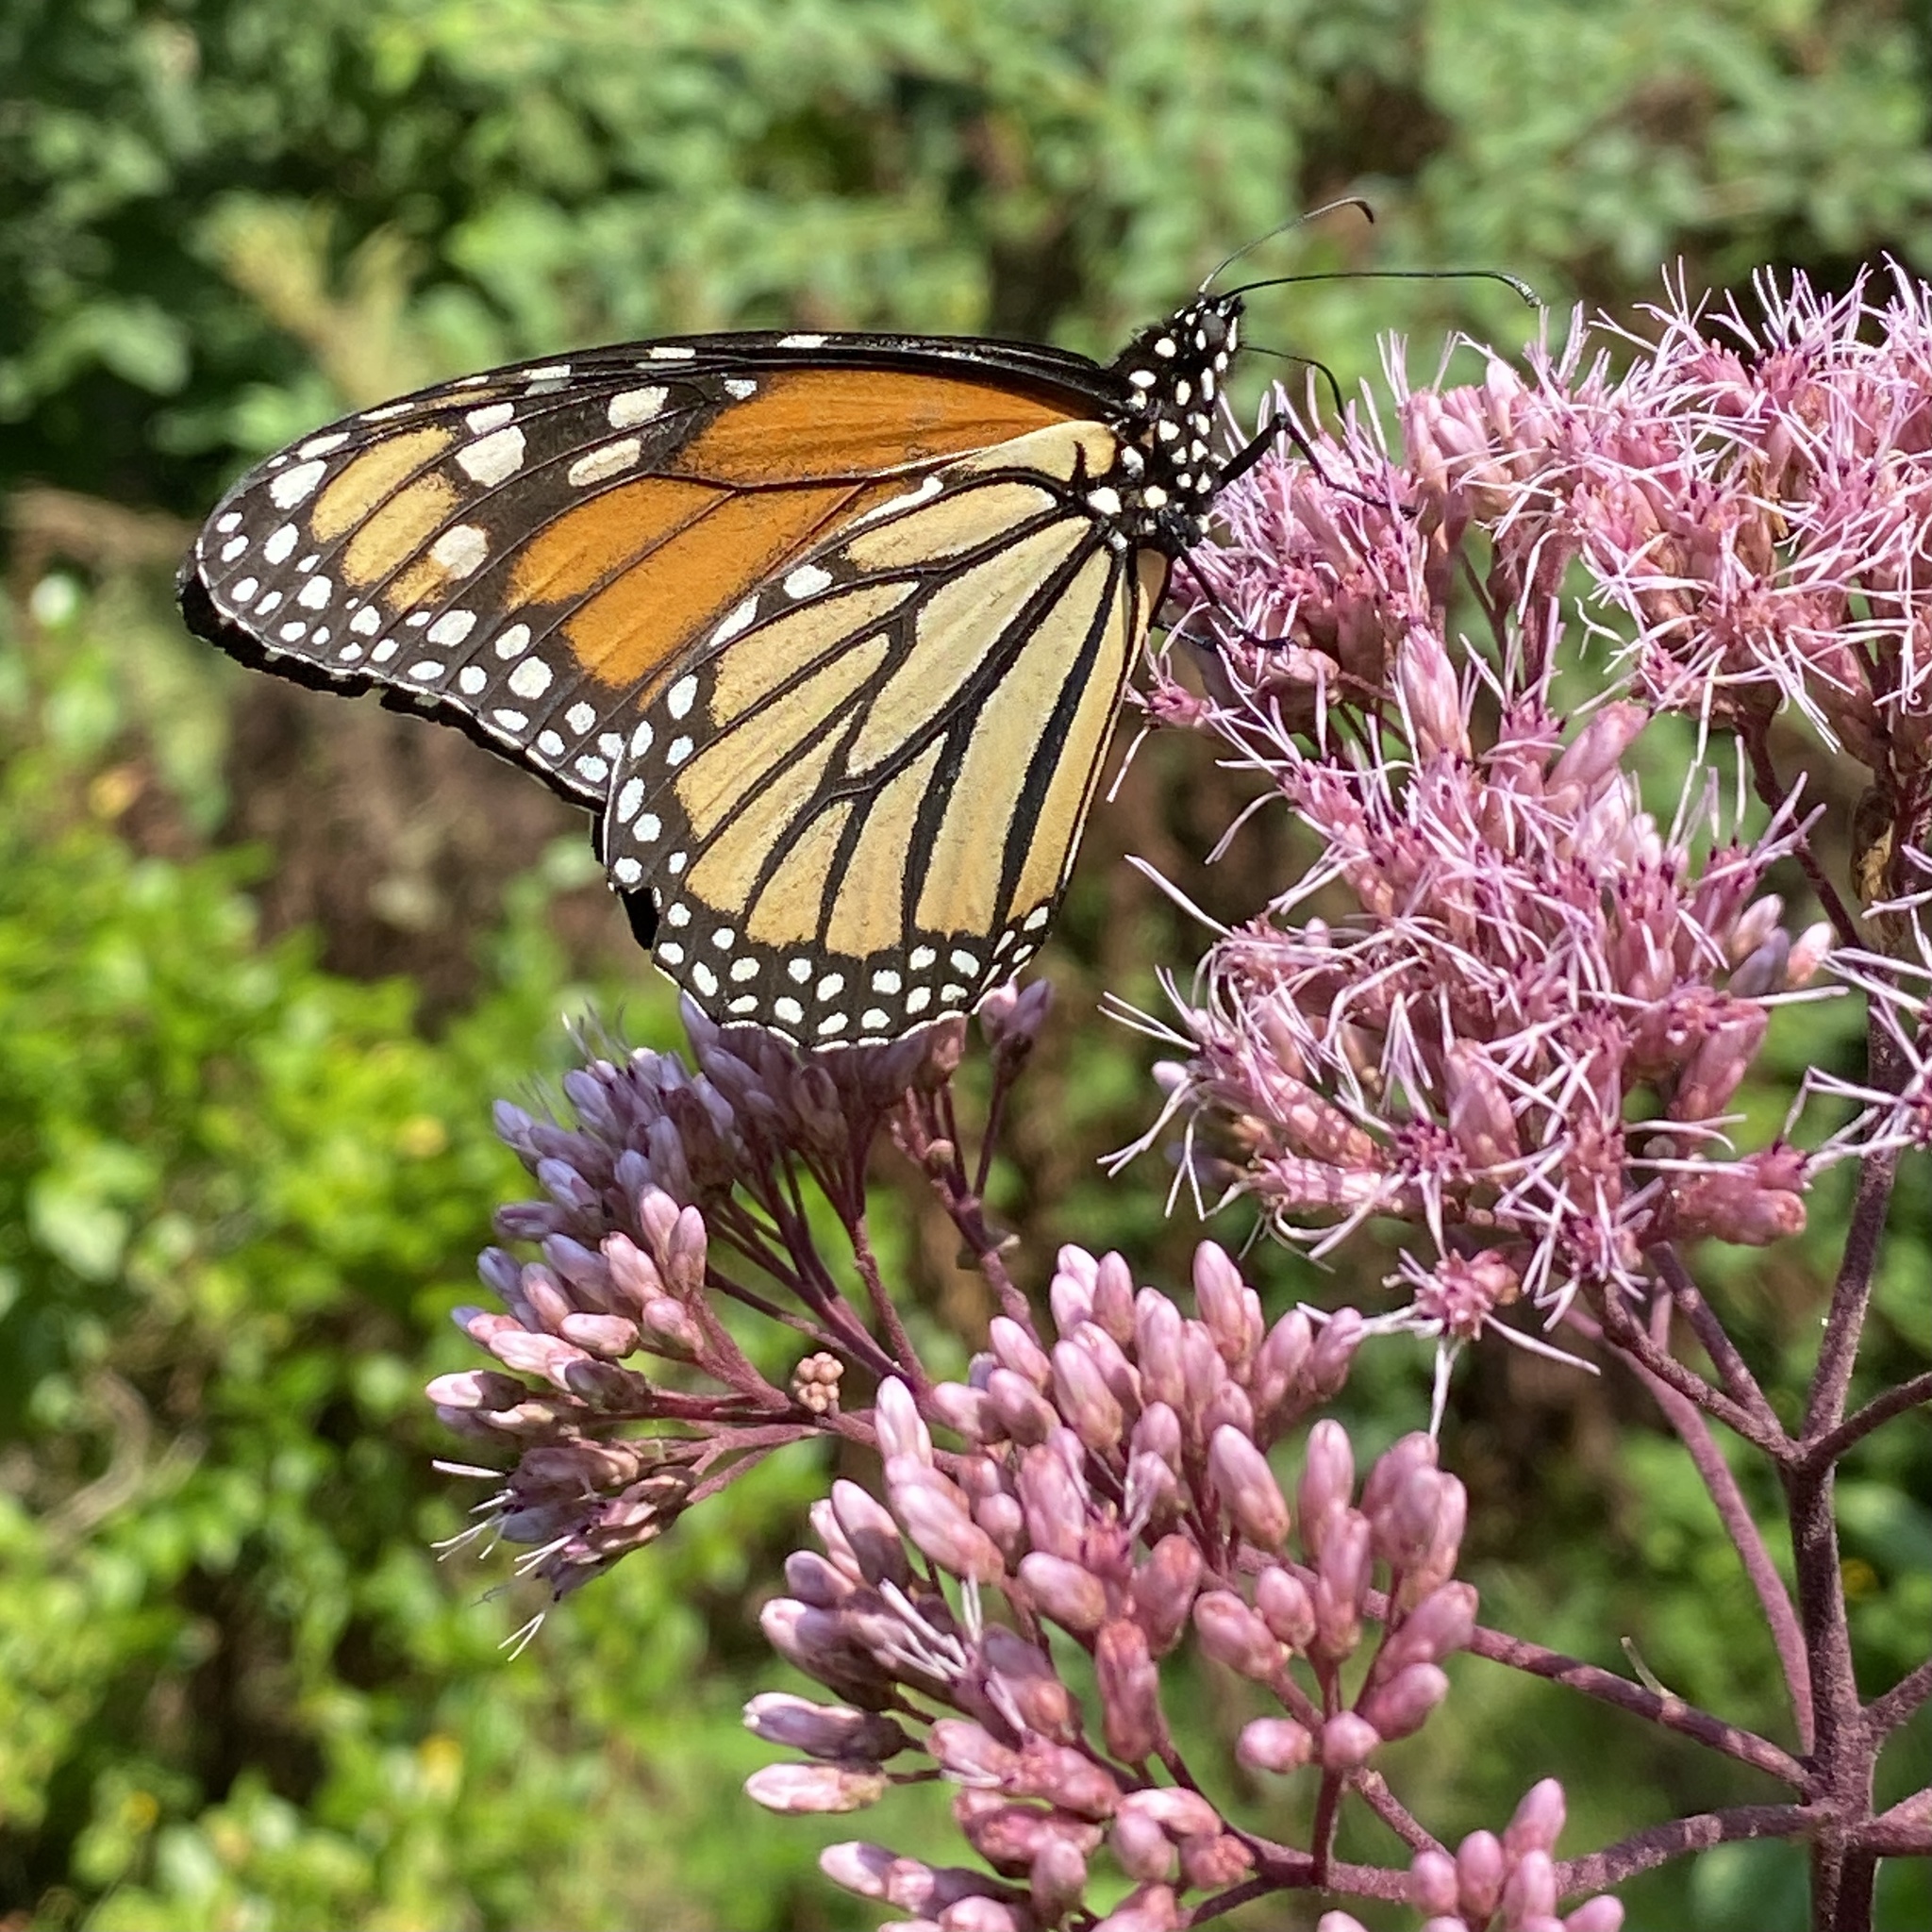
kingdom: Animalia
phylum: Arthropoda
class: Insecta
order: Lepidoptera
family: Nymphalidae
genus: Danaus
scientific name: Danaus plexippus
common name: Monarch
